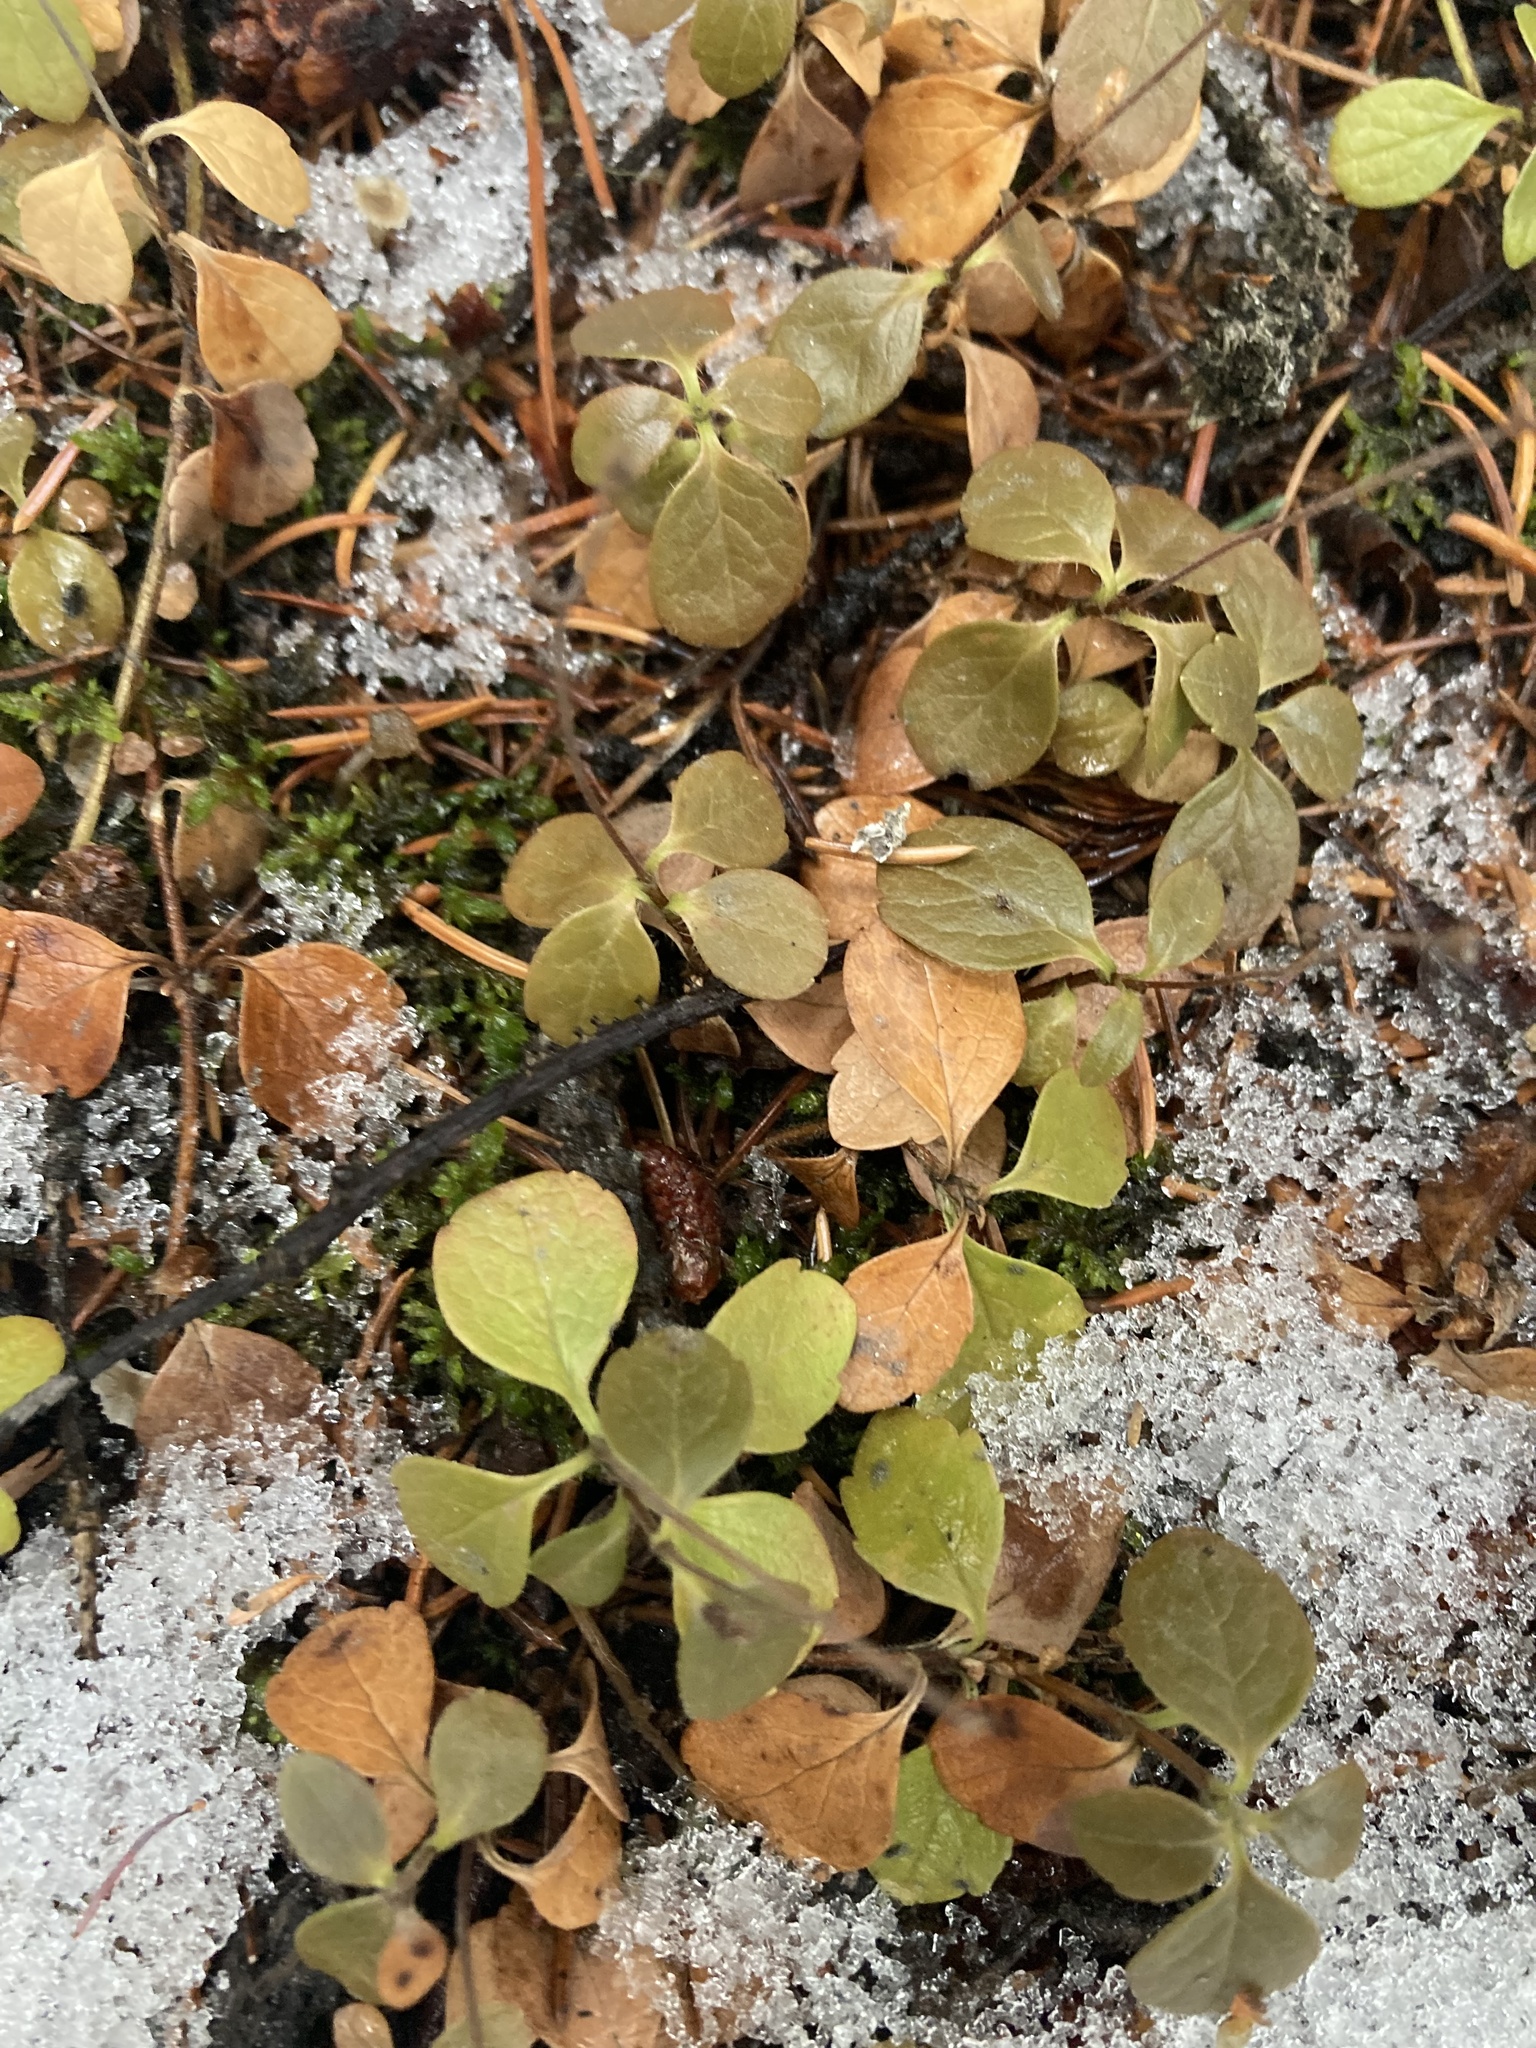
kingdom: Plantae
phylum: Tracheophyta
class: Magnoliopsida
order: Dipsacales
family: Caprifoliaceae
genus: Linnaea
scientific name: Linnaea borealis
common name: Twinflower
